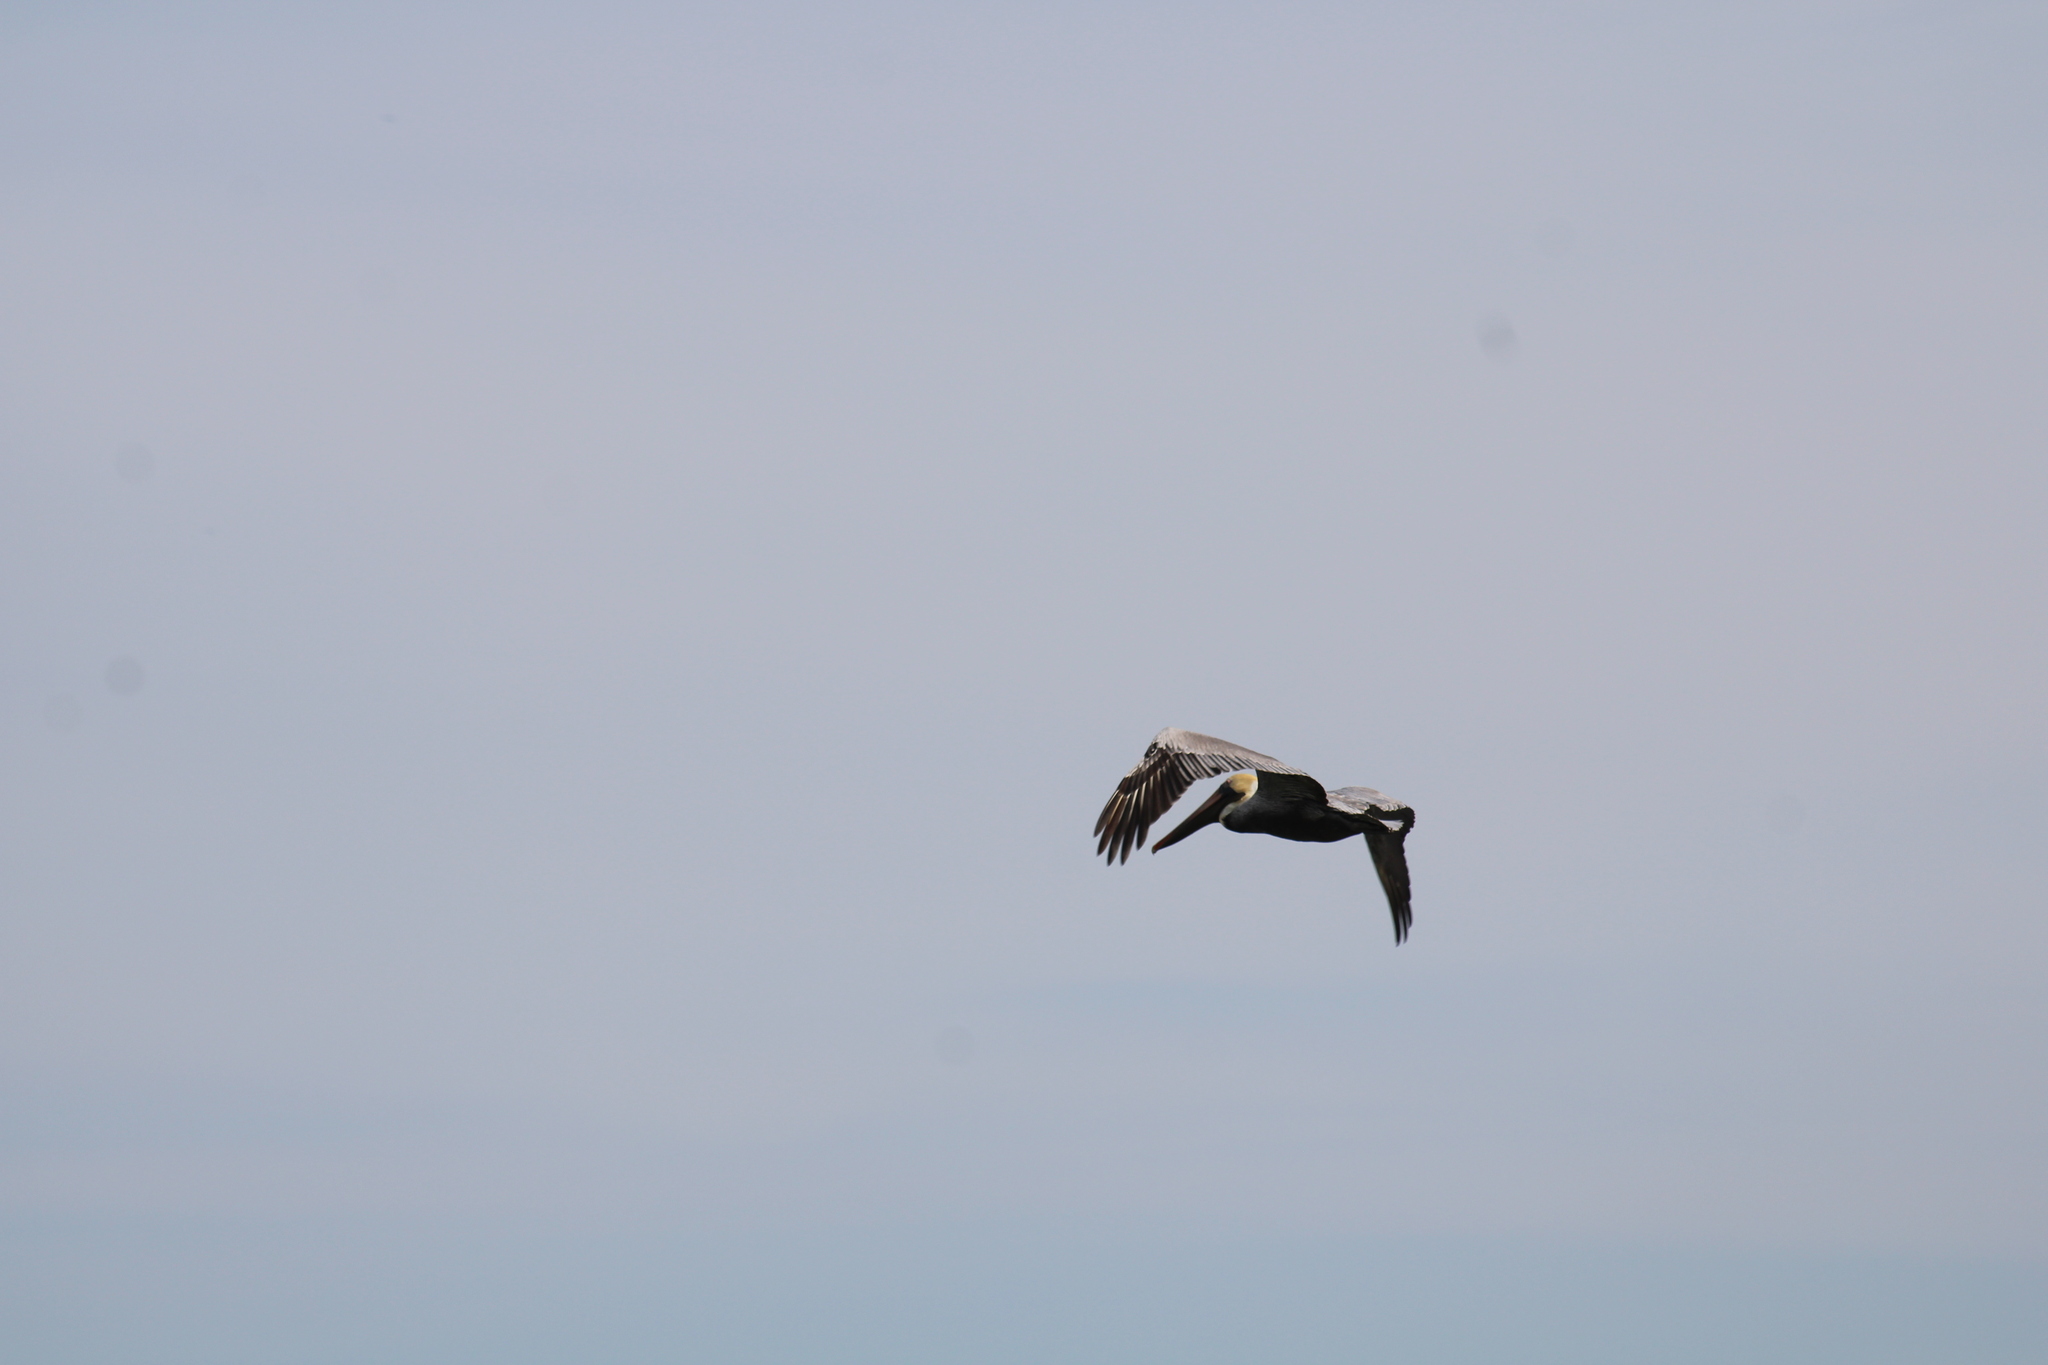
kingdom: Animalia
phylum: Chordata
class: Aves
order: Pelecaniformes
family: Pelecanidae
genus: Pelecanus
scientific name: Pelecanus occidentalis
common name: Brown pelican
